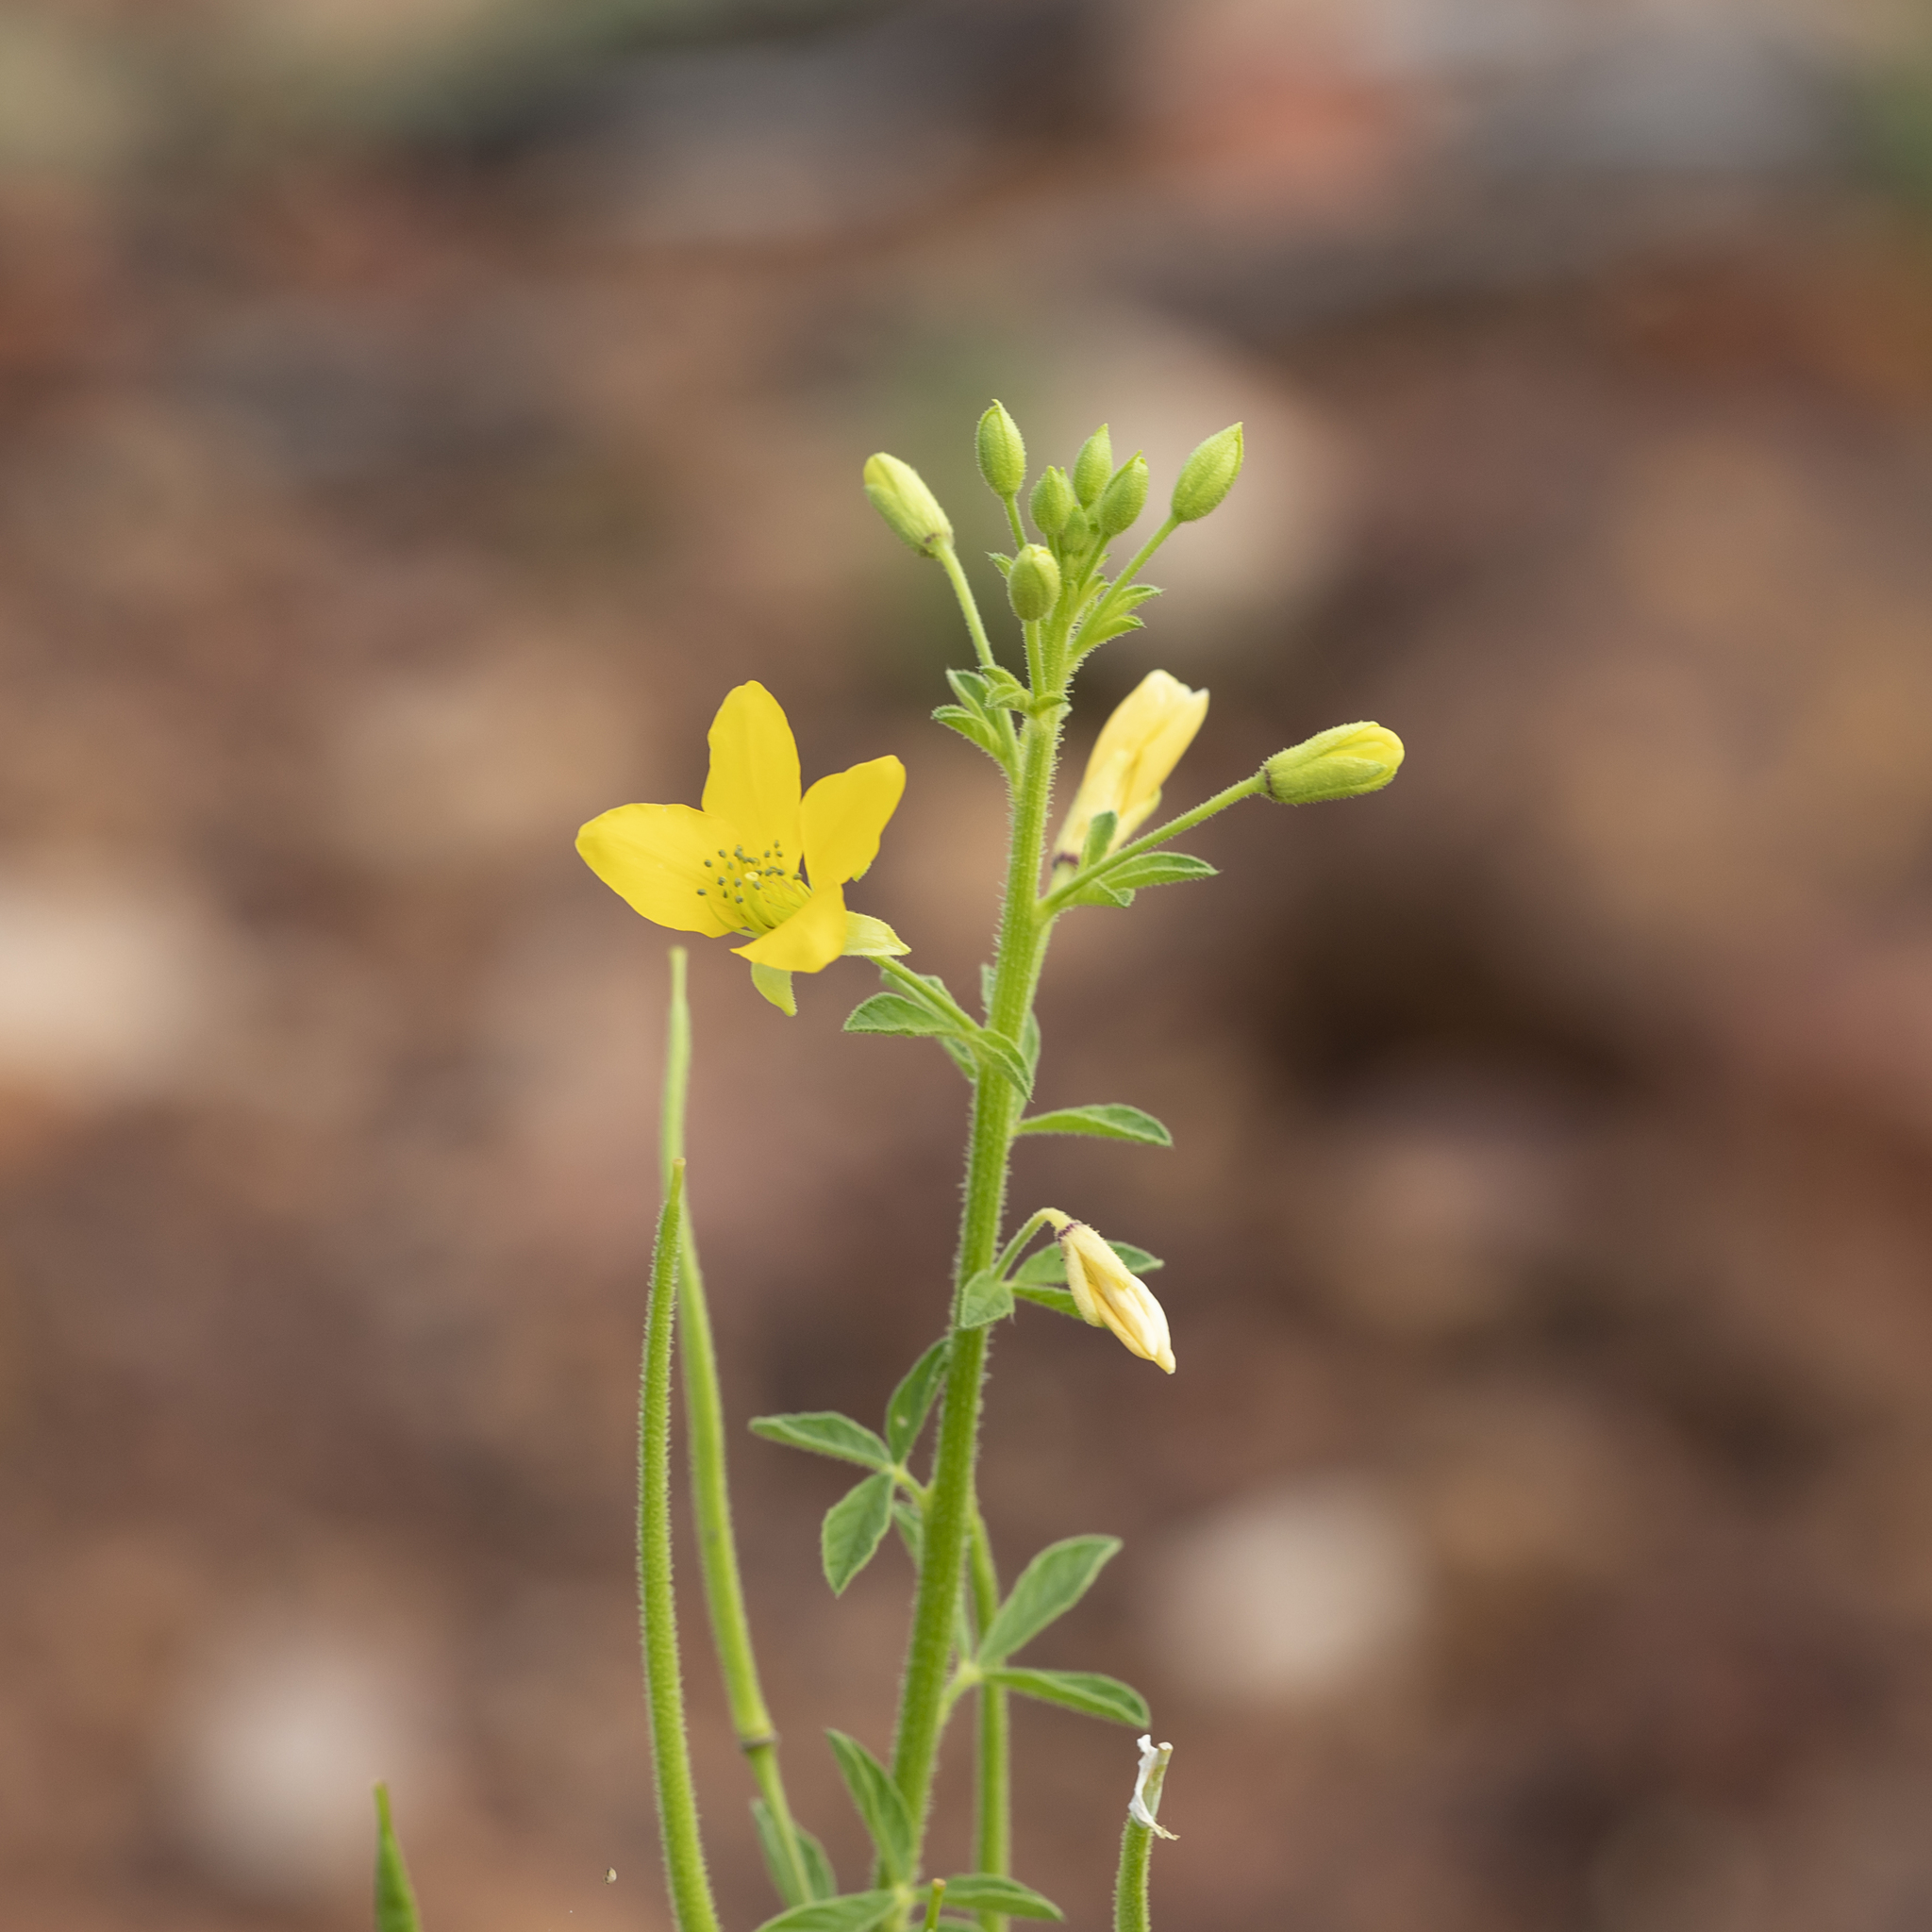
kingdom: Plantae
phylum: Tracheophyta
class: Magnoliopsida
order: Brassicales
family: Cleomaceae
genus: Arivela
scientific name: Arivela viscosa
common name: Asian spiderflower
